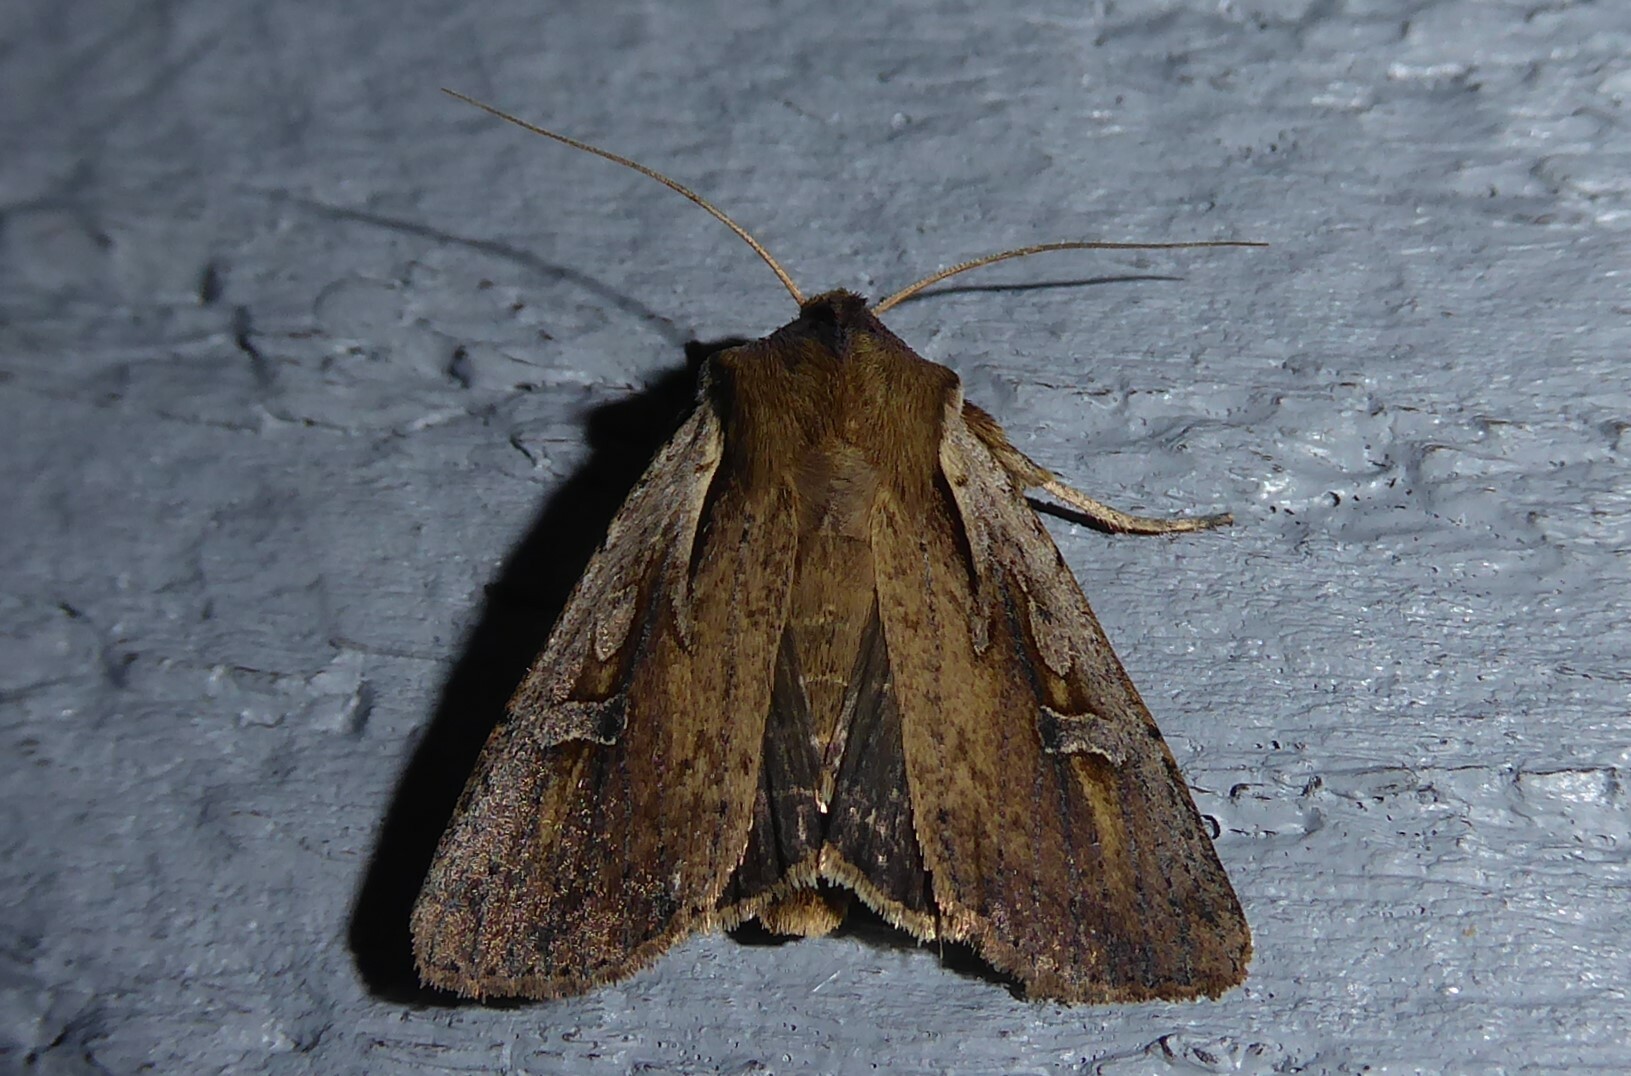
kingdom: Animalia
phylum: Arthropoda
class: Insecta
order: Lepidoptera
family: Noctuidae
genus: Ichneutica
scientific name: Ichneutica atristriga
